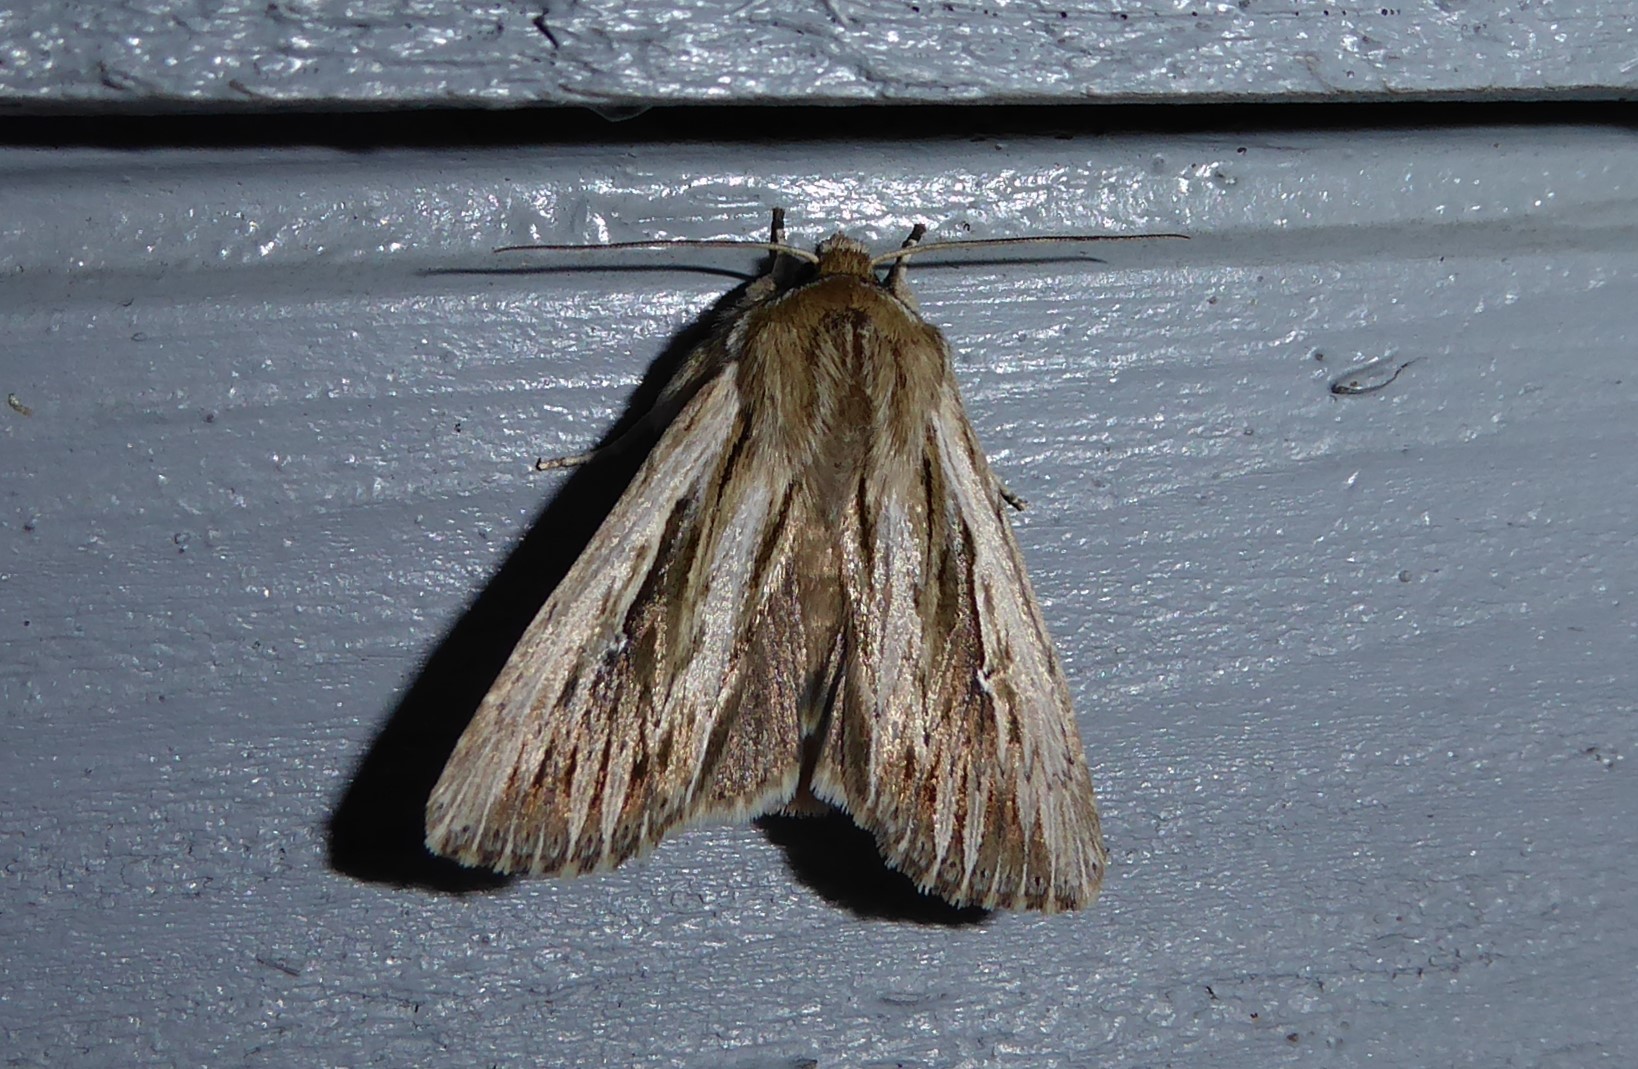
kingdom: Animalia
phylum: Arthropoda
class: Insecta
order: Lepidoptera
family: Noctuidae
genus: Persectania
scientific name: Persectania aversa
